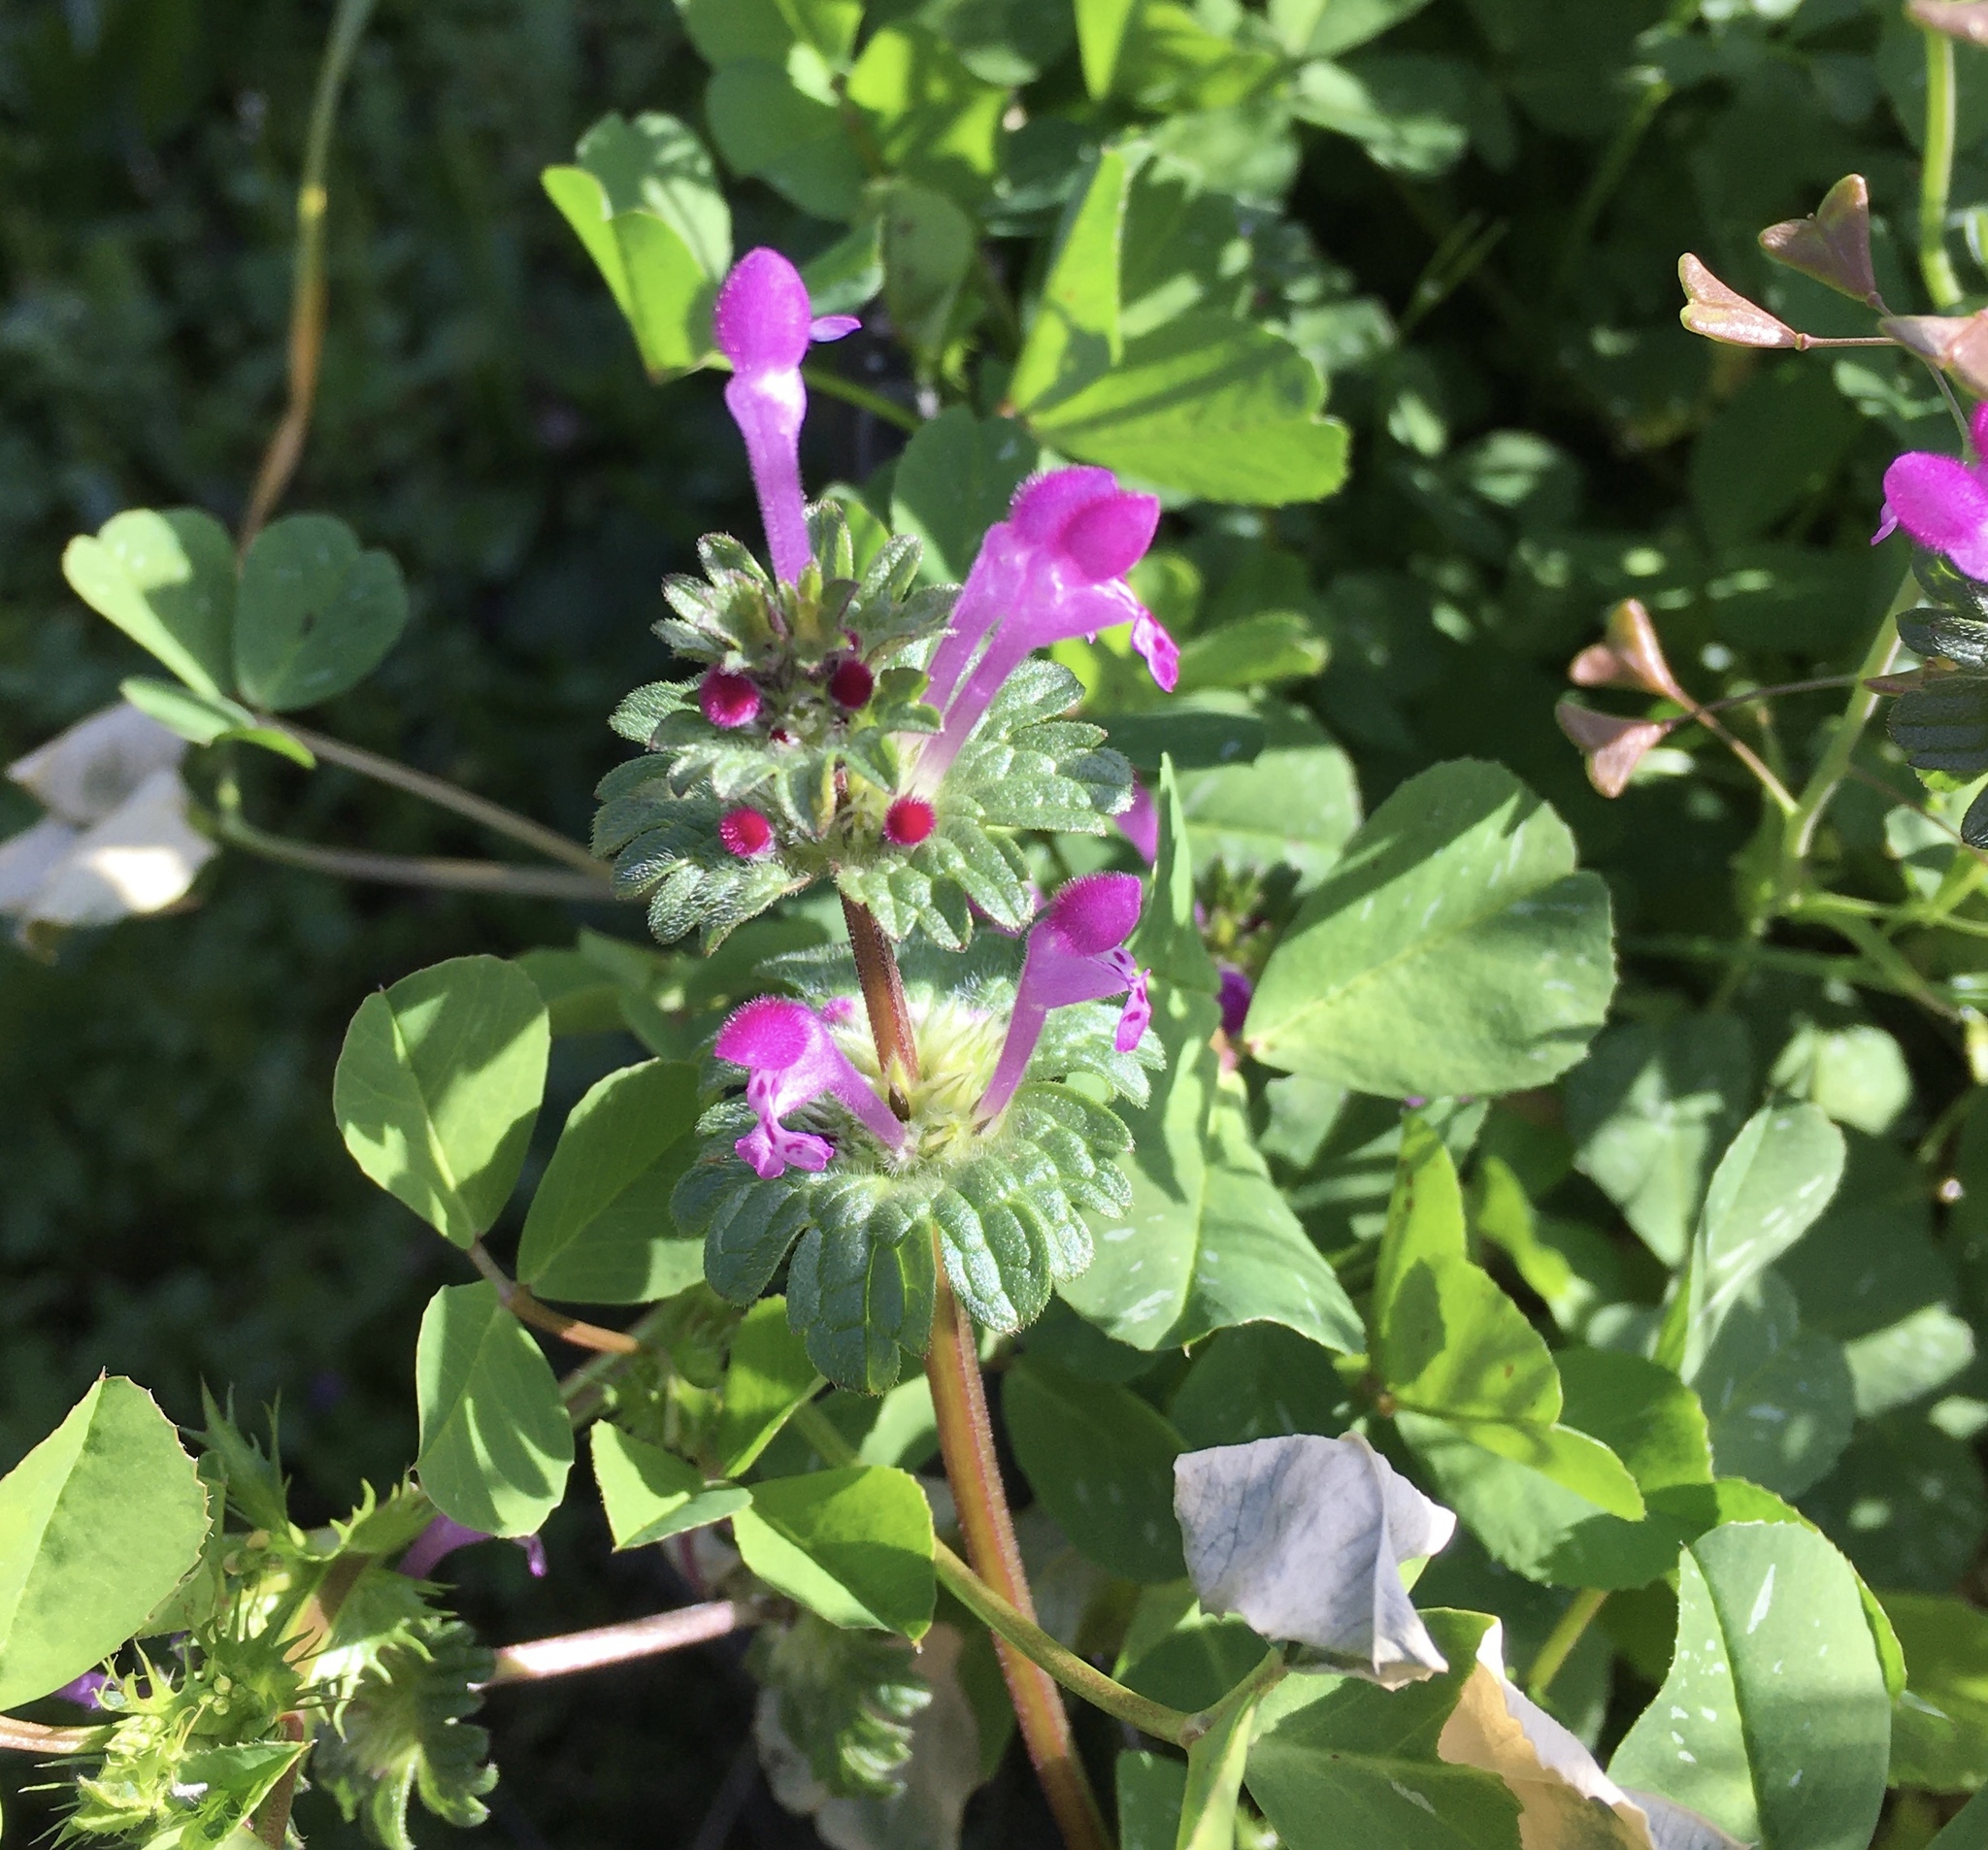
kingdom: Plantae
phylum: Tracheophyta
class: Magnoliopsida
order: Lamiales
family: Lamiaceae
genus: Lamium
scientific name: Lamium amplexicaule
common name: Henbit dead-nettle
